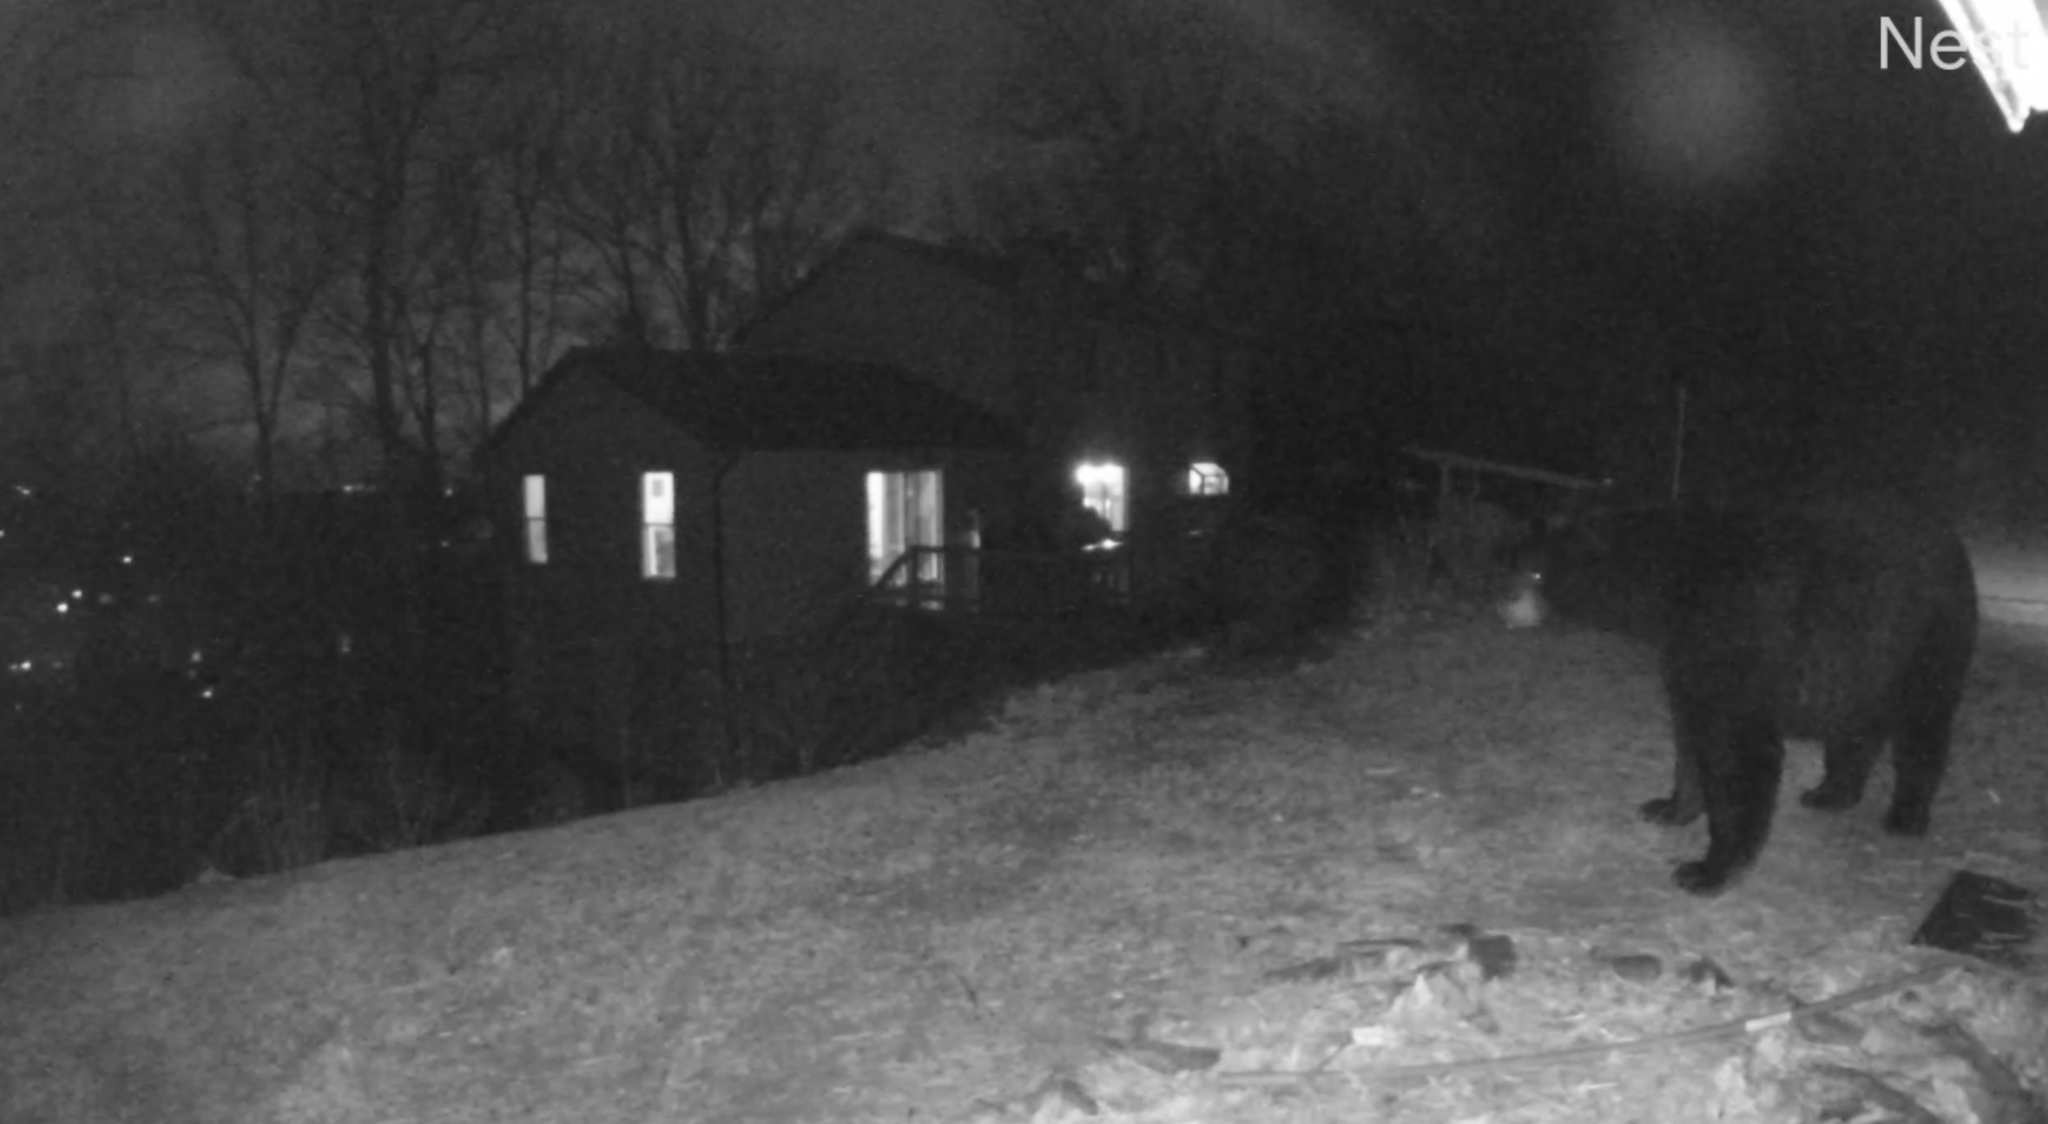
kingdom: Animalia
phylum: Chordata
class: Mammalia
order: Carnivora
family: Ursidae
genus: Ursus
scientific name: Ursus americanus
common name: American black bear
